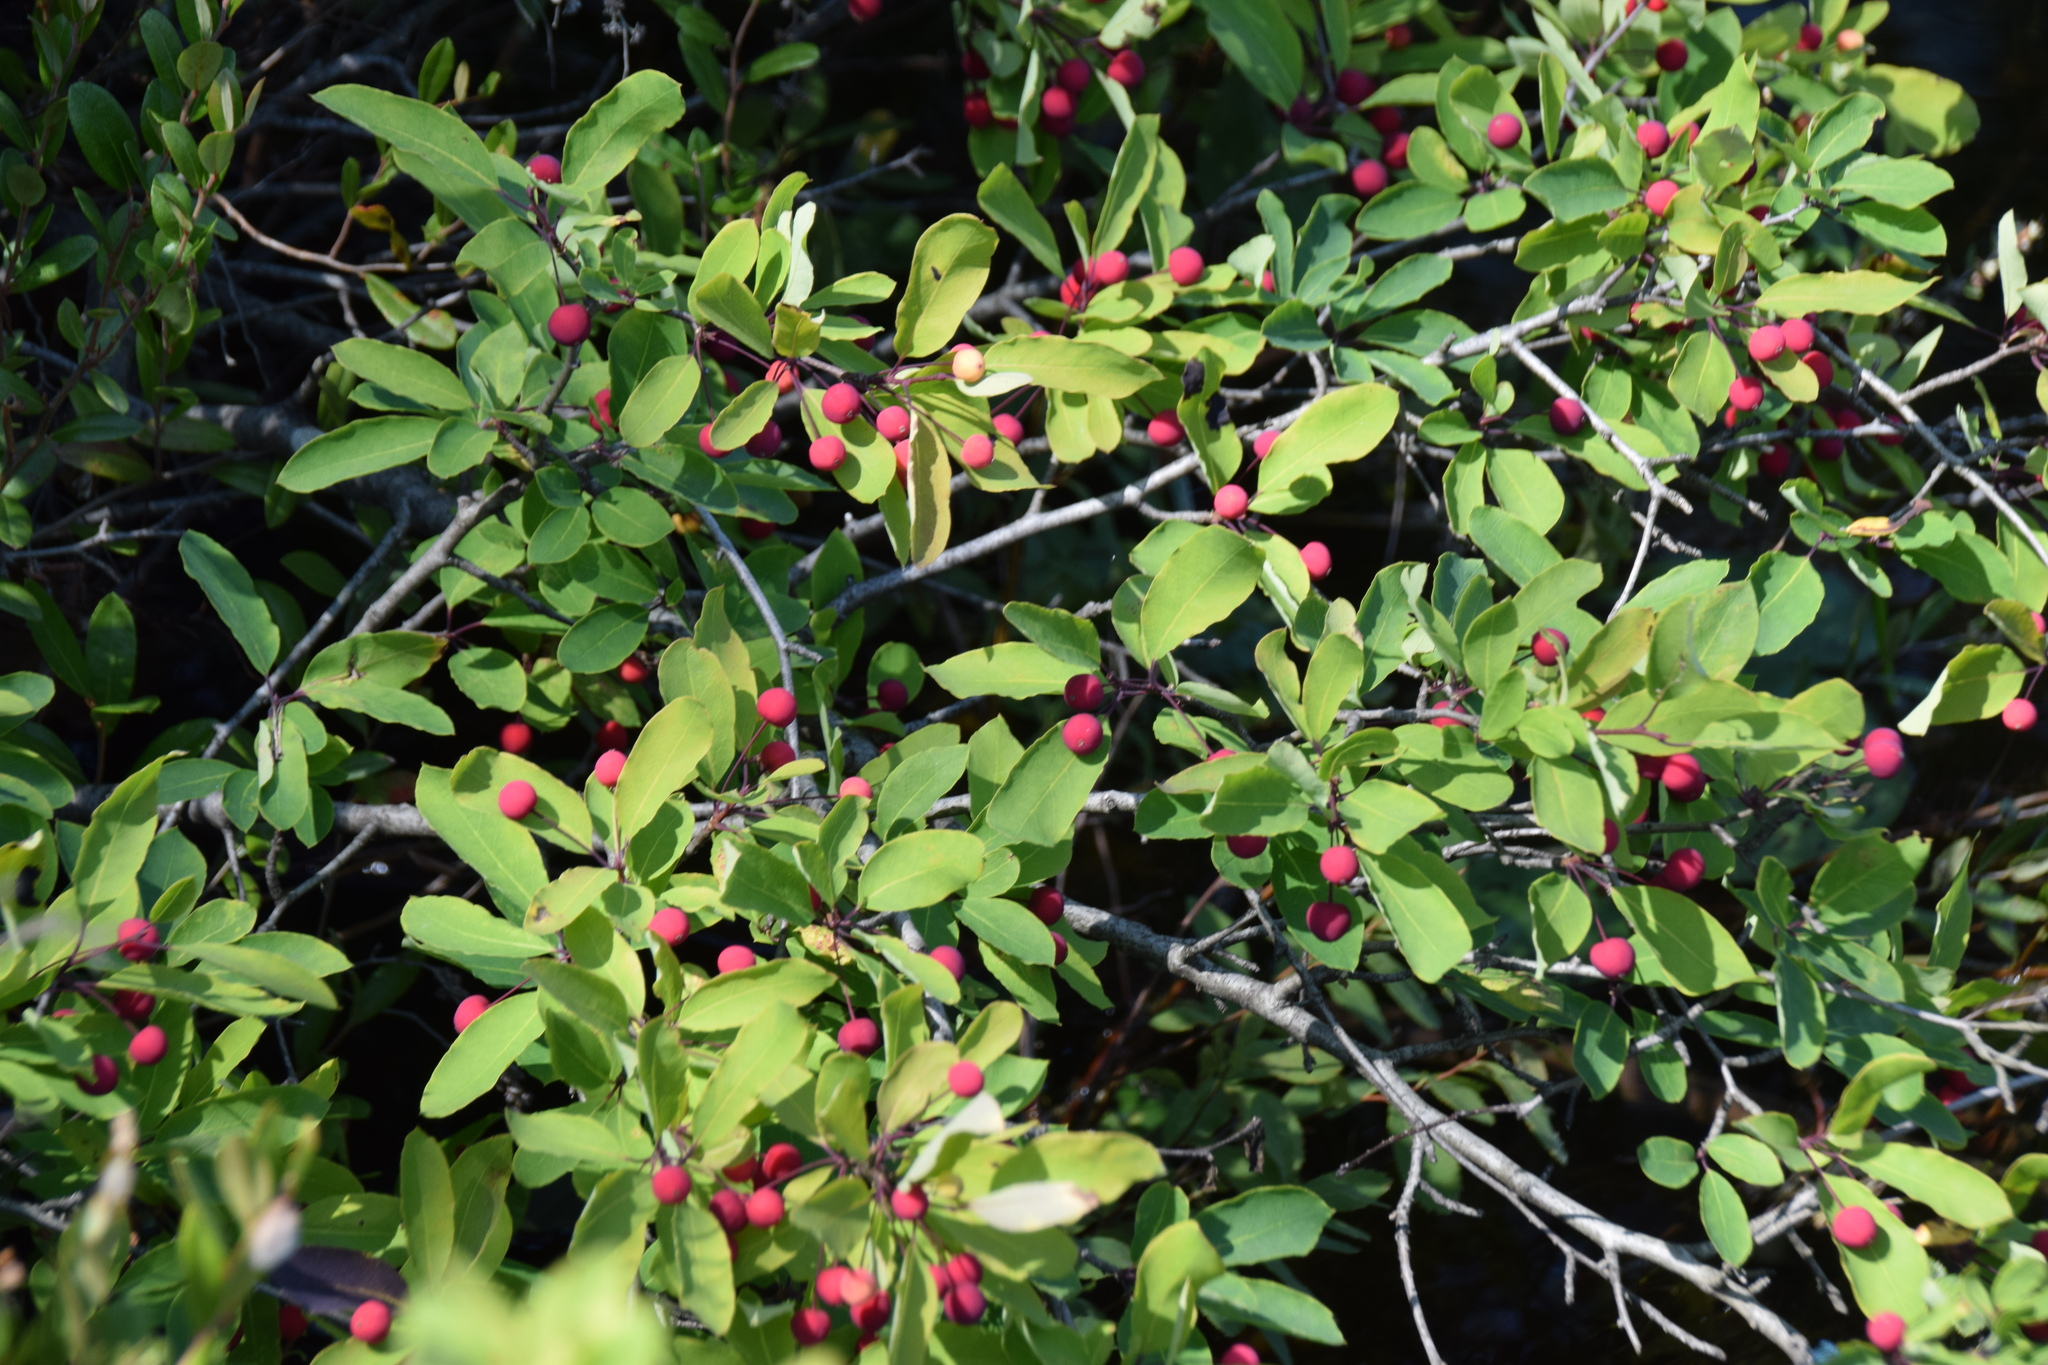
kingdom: Plantae
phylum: Tracheophyta
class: Magnoliopsida
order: Aquifoliales
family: Aquifoliaceae
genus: Ilex
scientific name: Ilex mucronata
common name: Catberry
